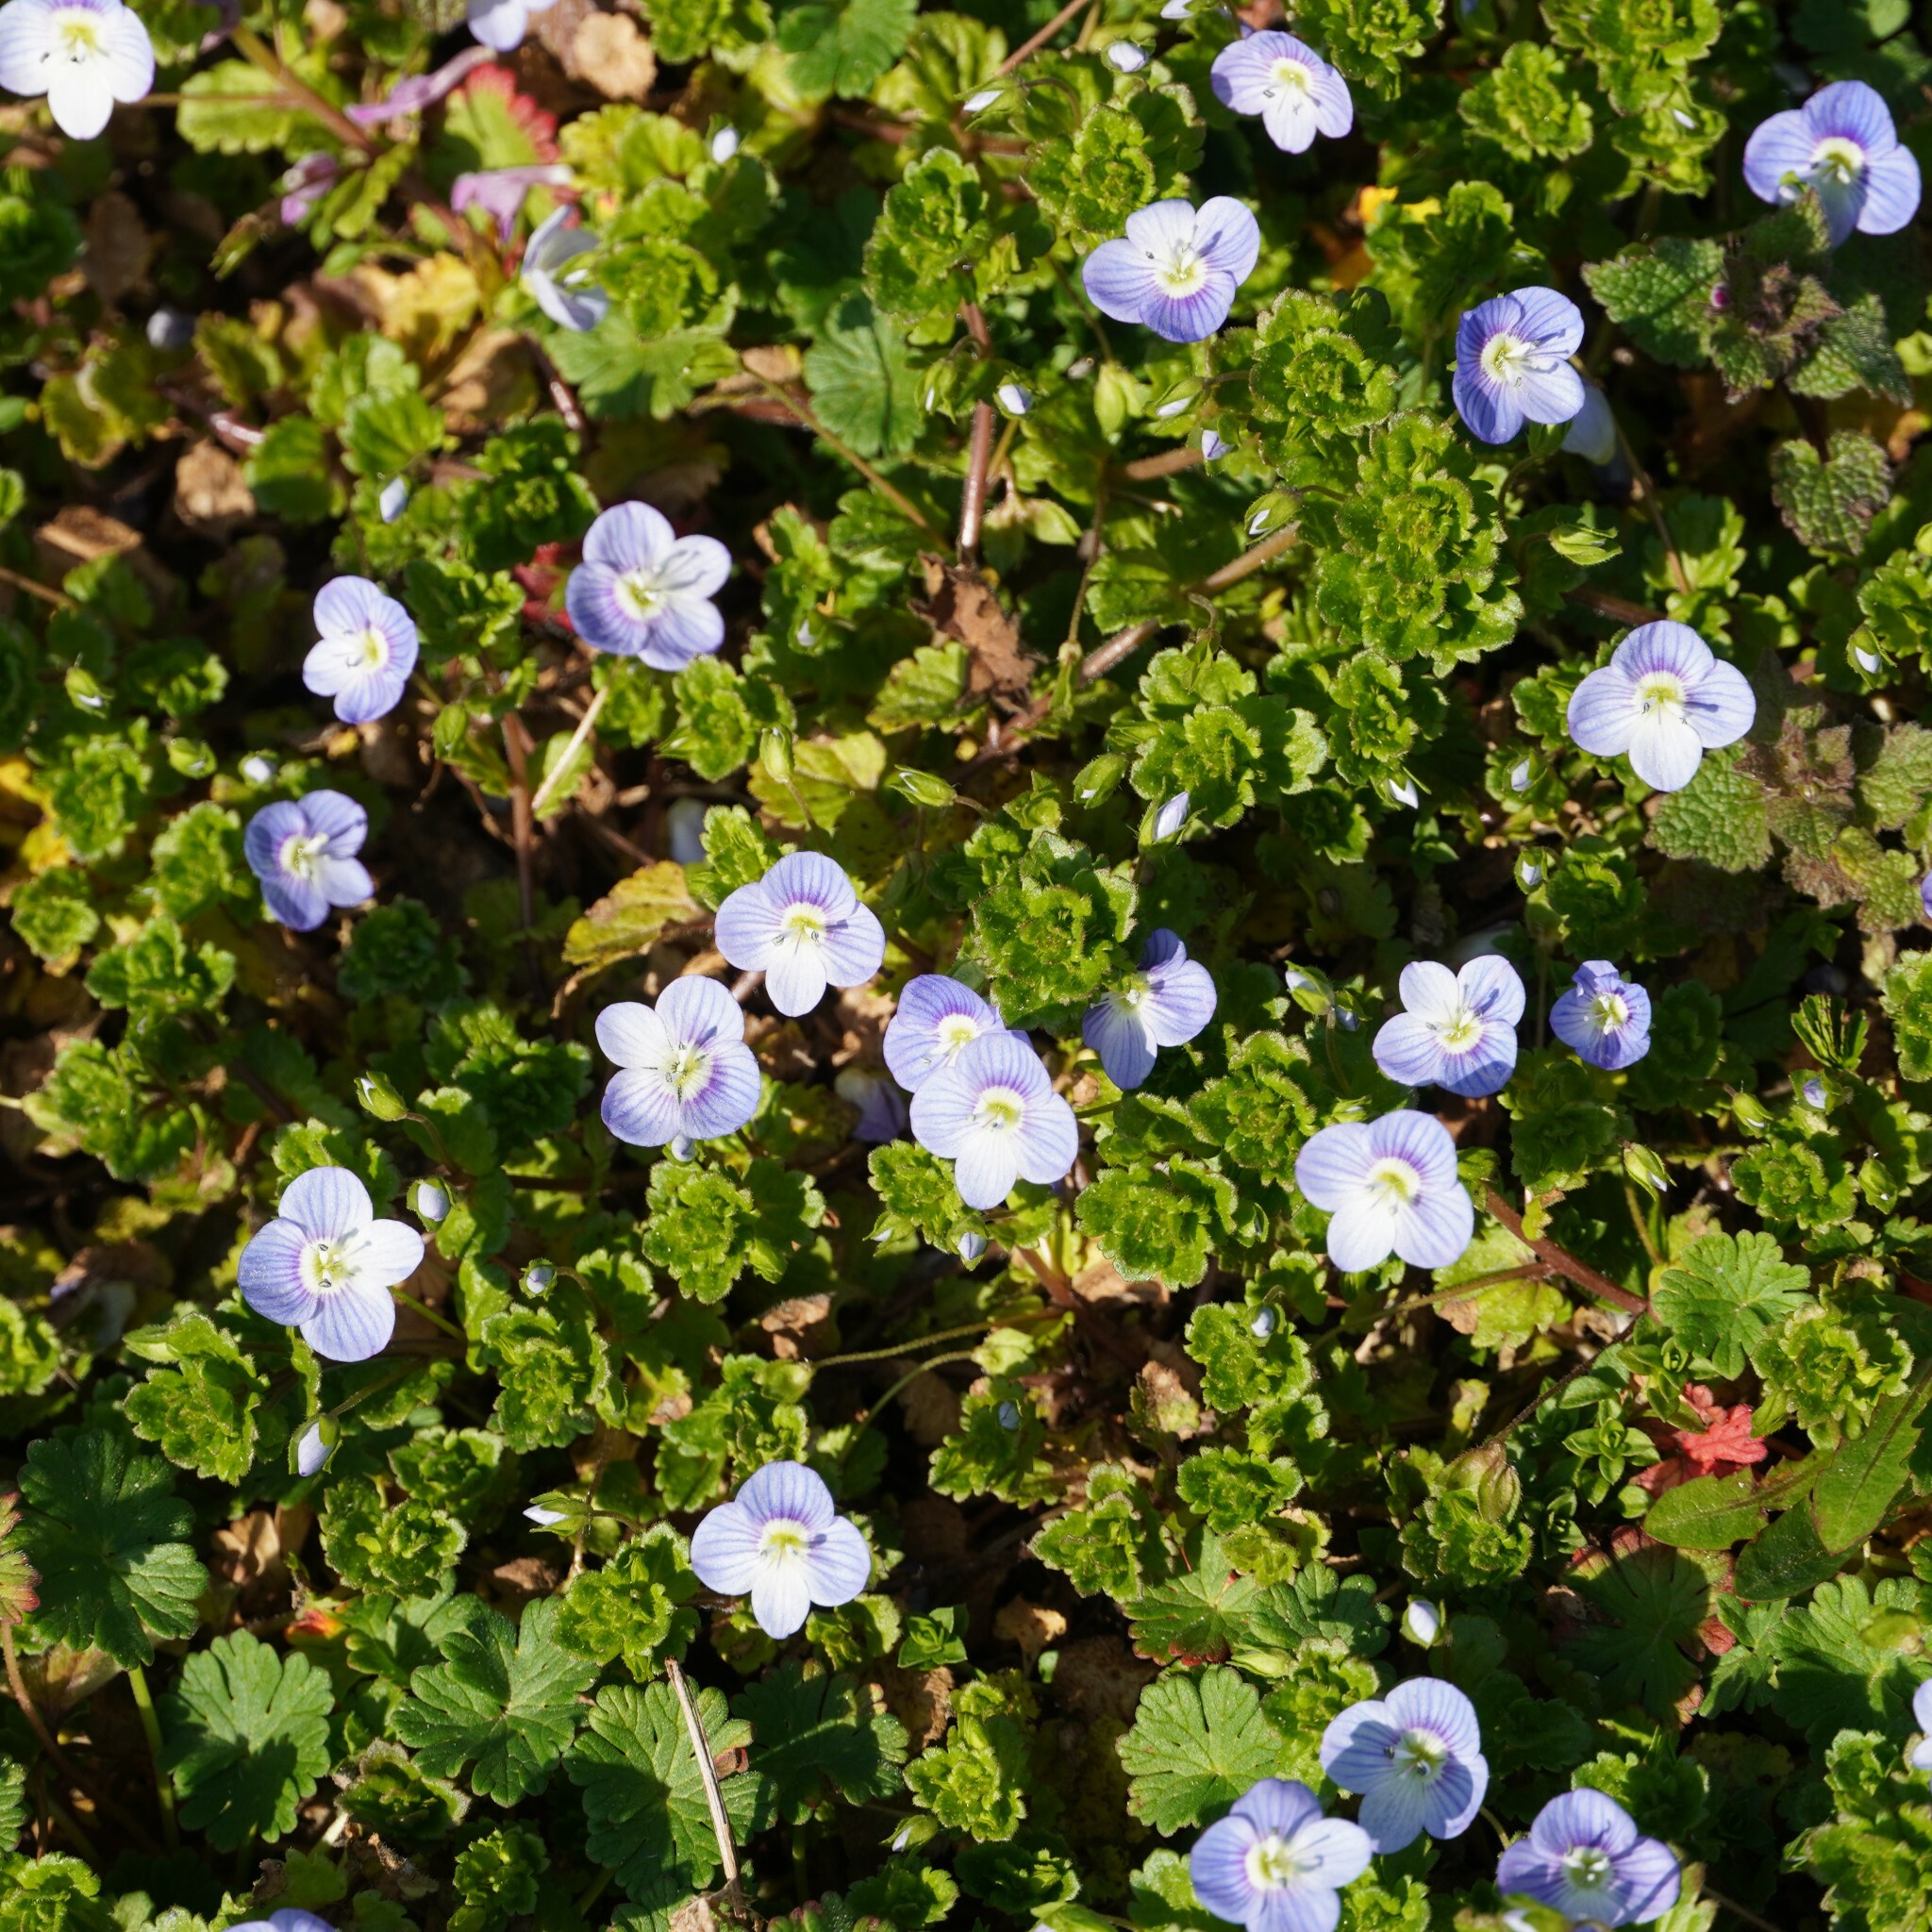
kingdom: Plantae
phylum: Tracheophyta
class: Magnoliopsida
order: Lamiales
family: Plantaginaceae
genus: Veronica
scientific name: Veronica persica
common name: Common field-speedwell
